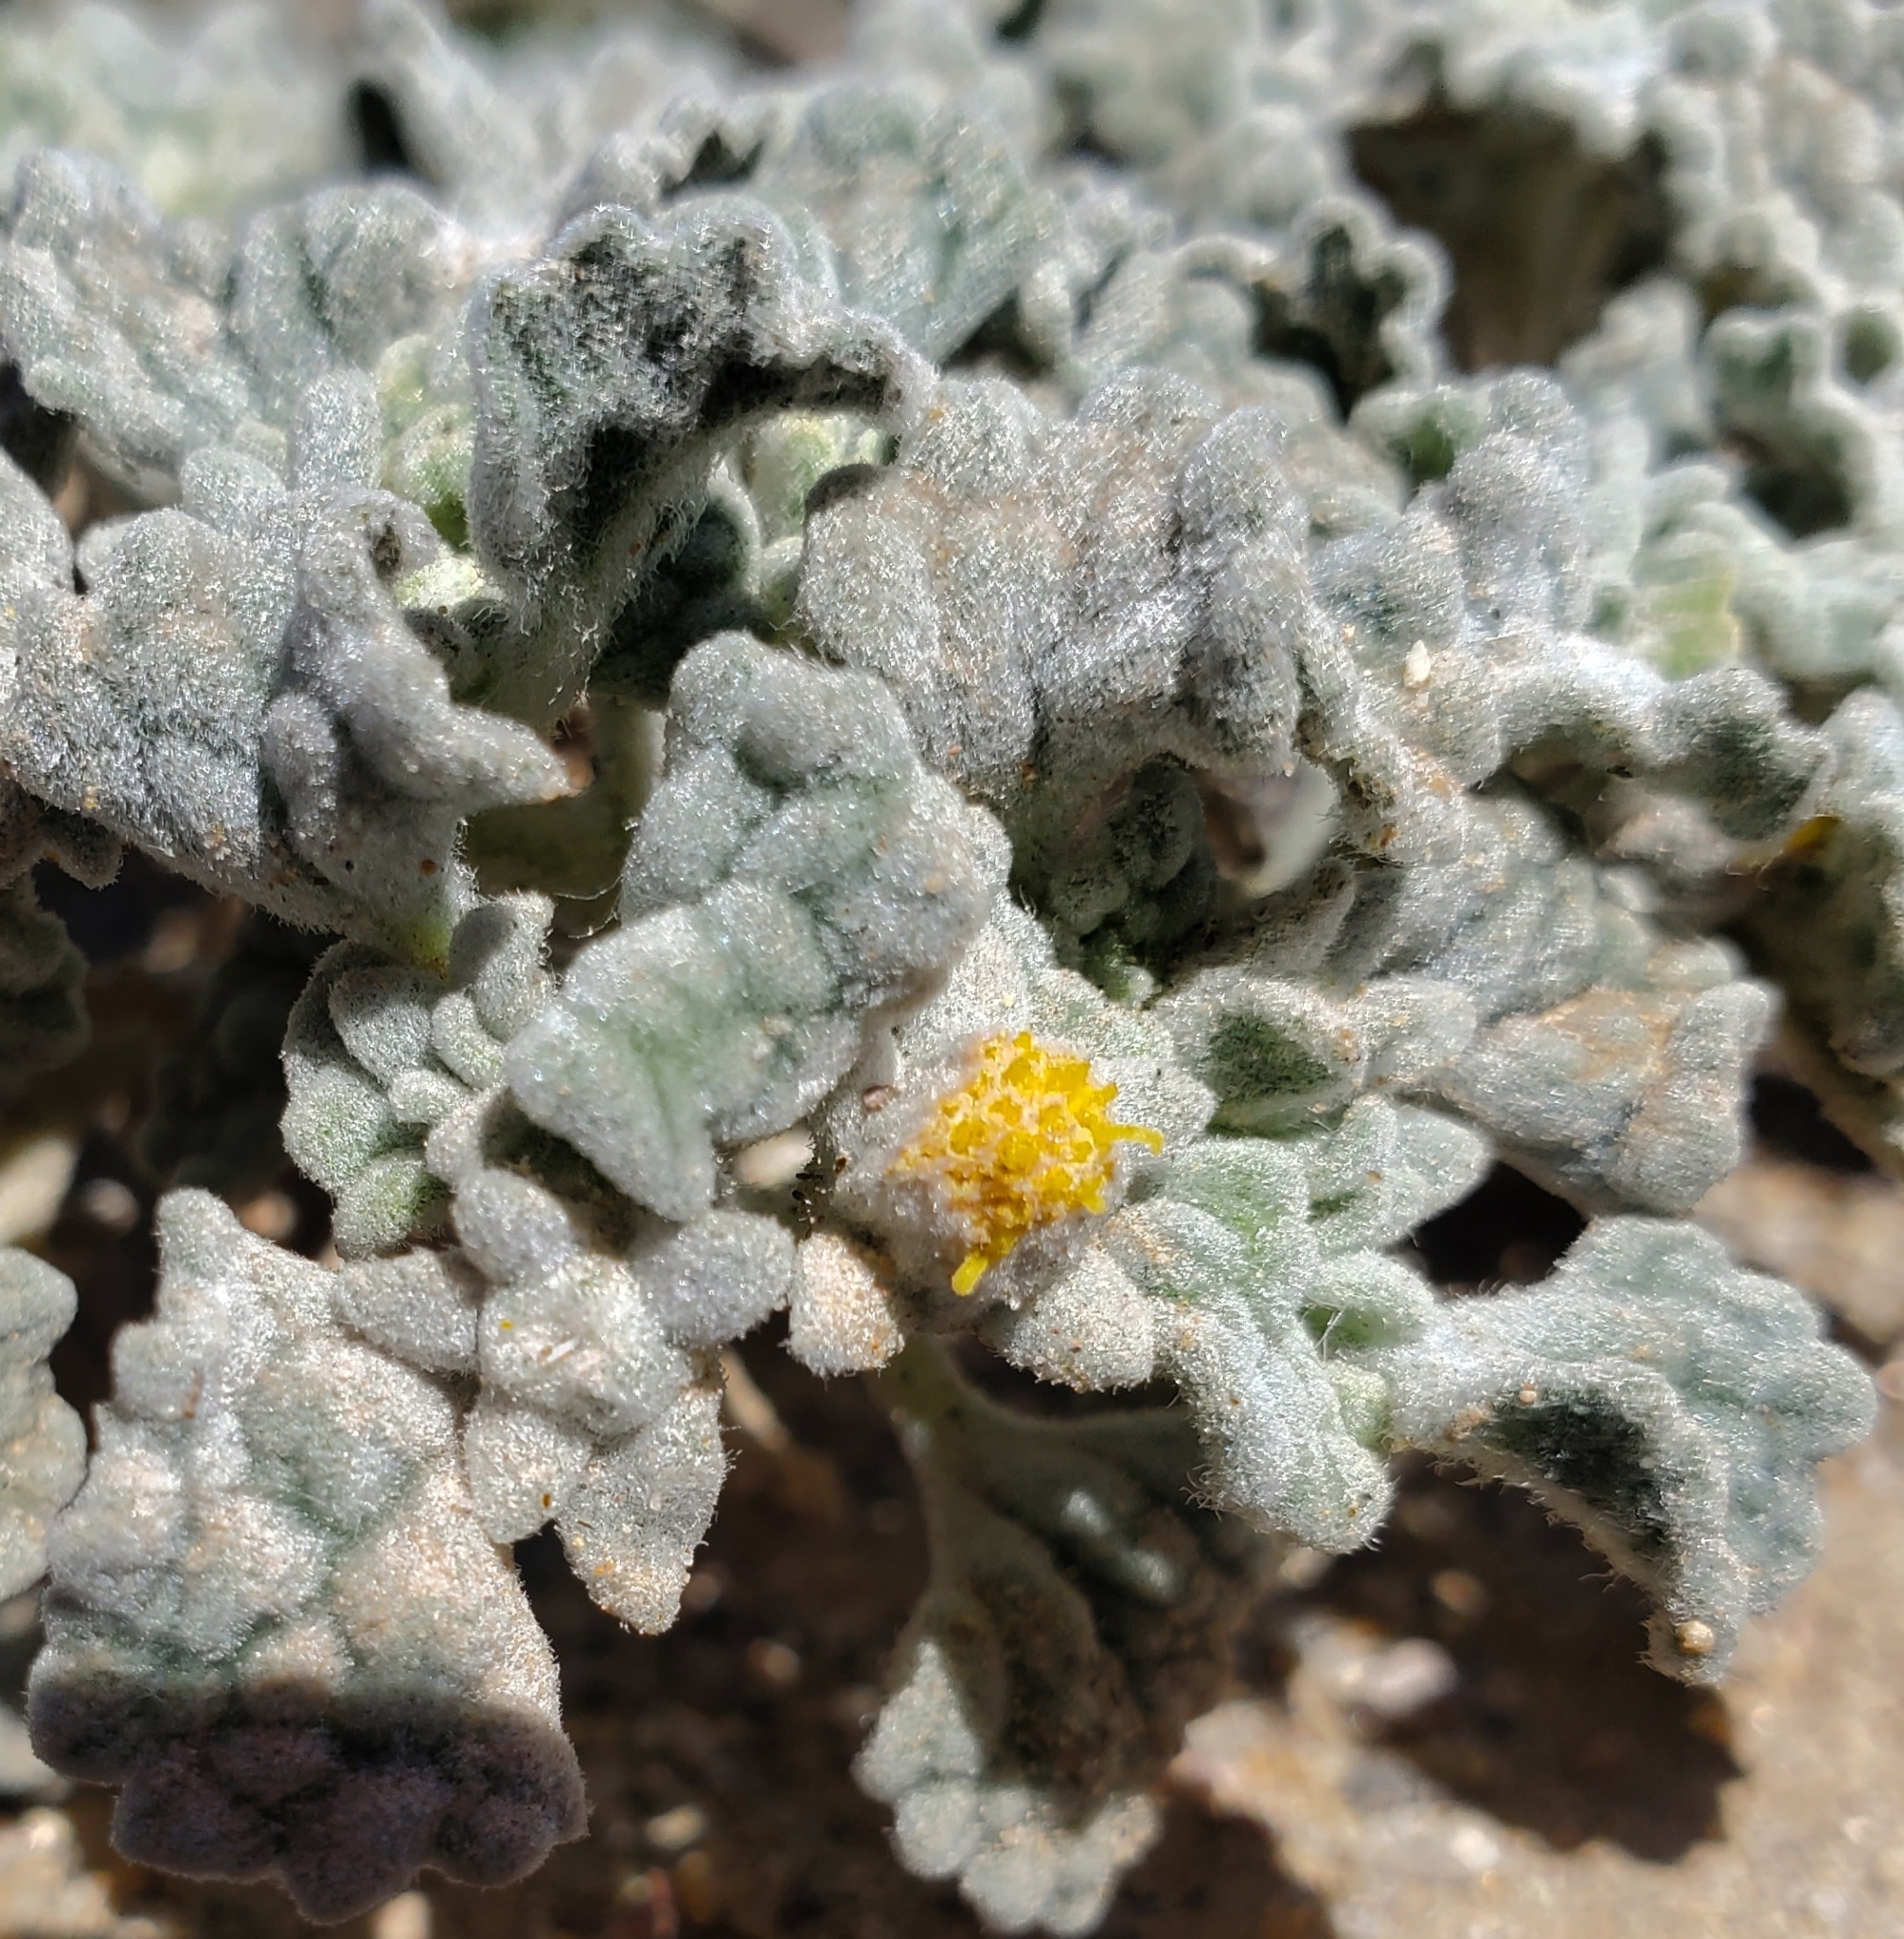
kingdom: Plantae
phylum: Tracheophyta
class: Magnoliopsida
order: Asterales
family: Asteraceae
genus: Psathyrotes
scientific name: Psathyrotes ramosissima
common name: Turtleback
